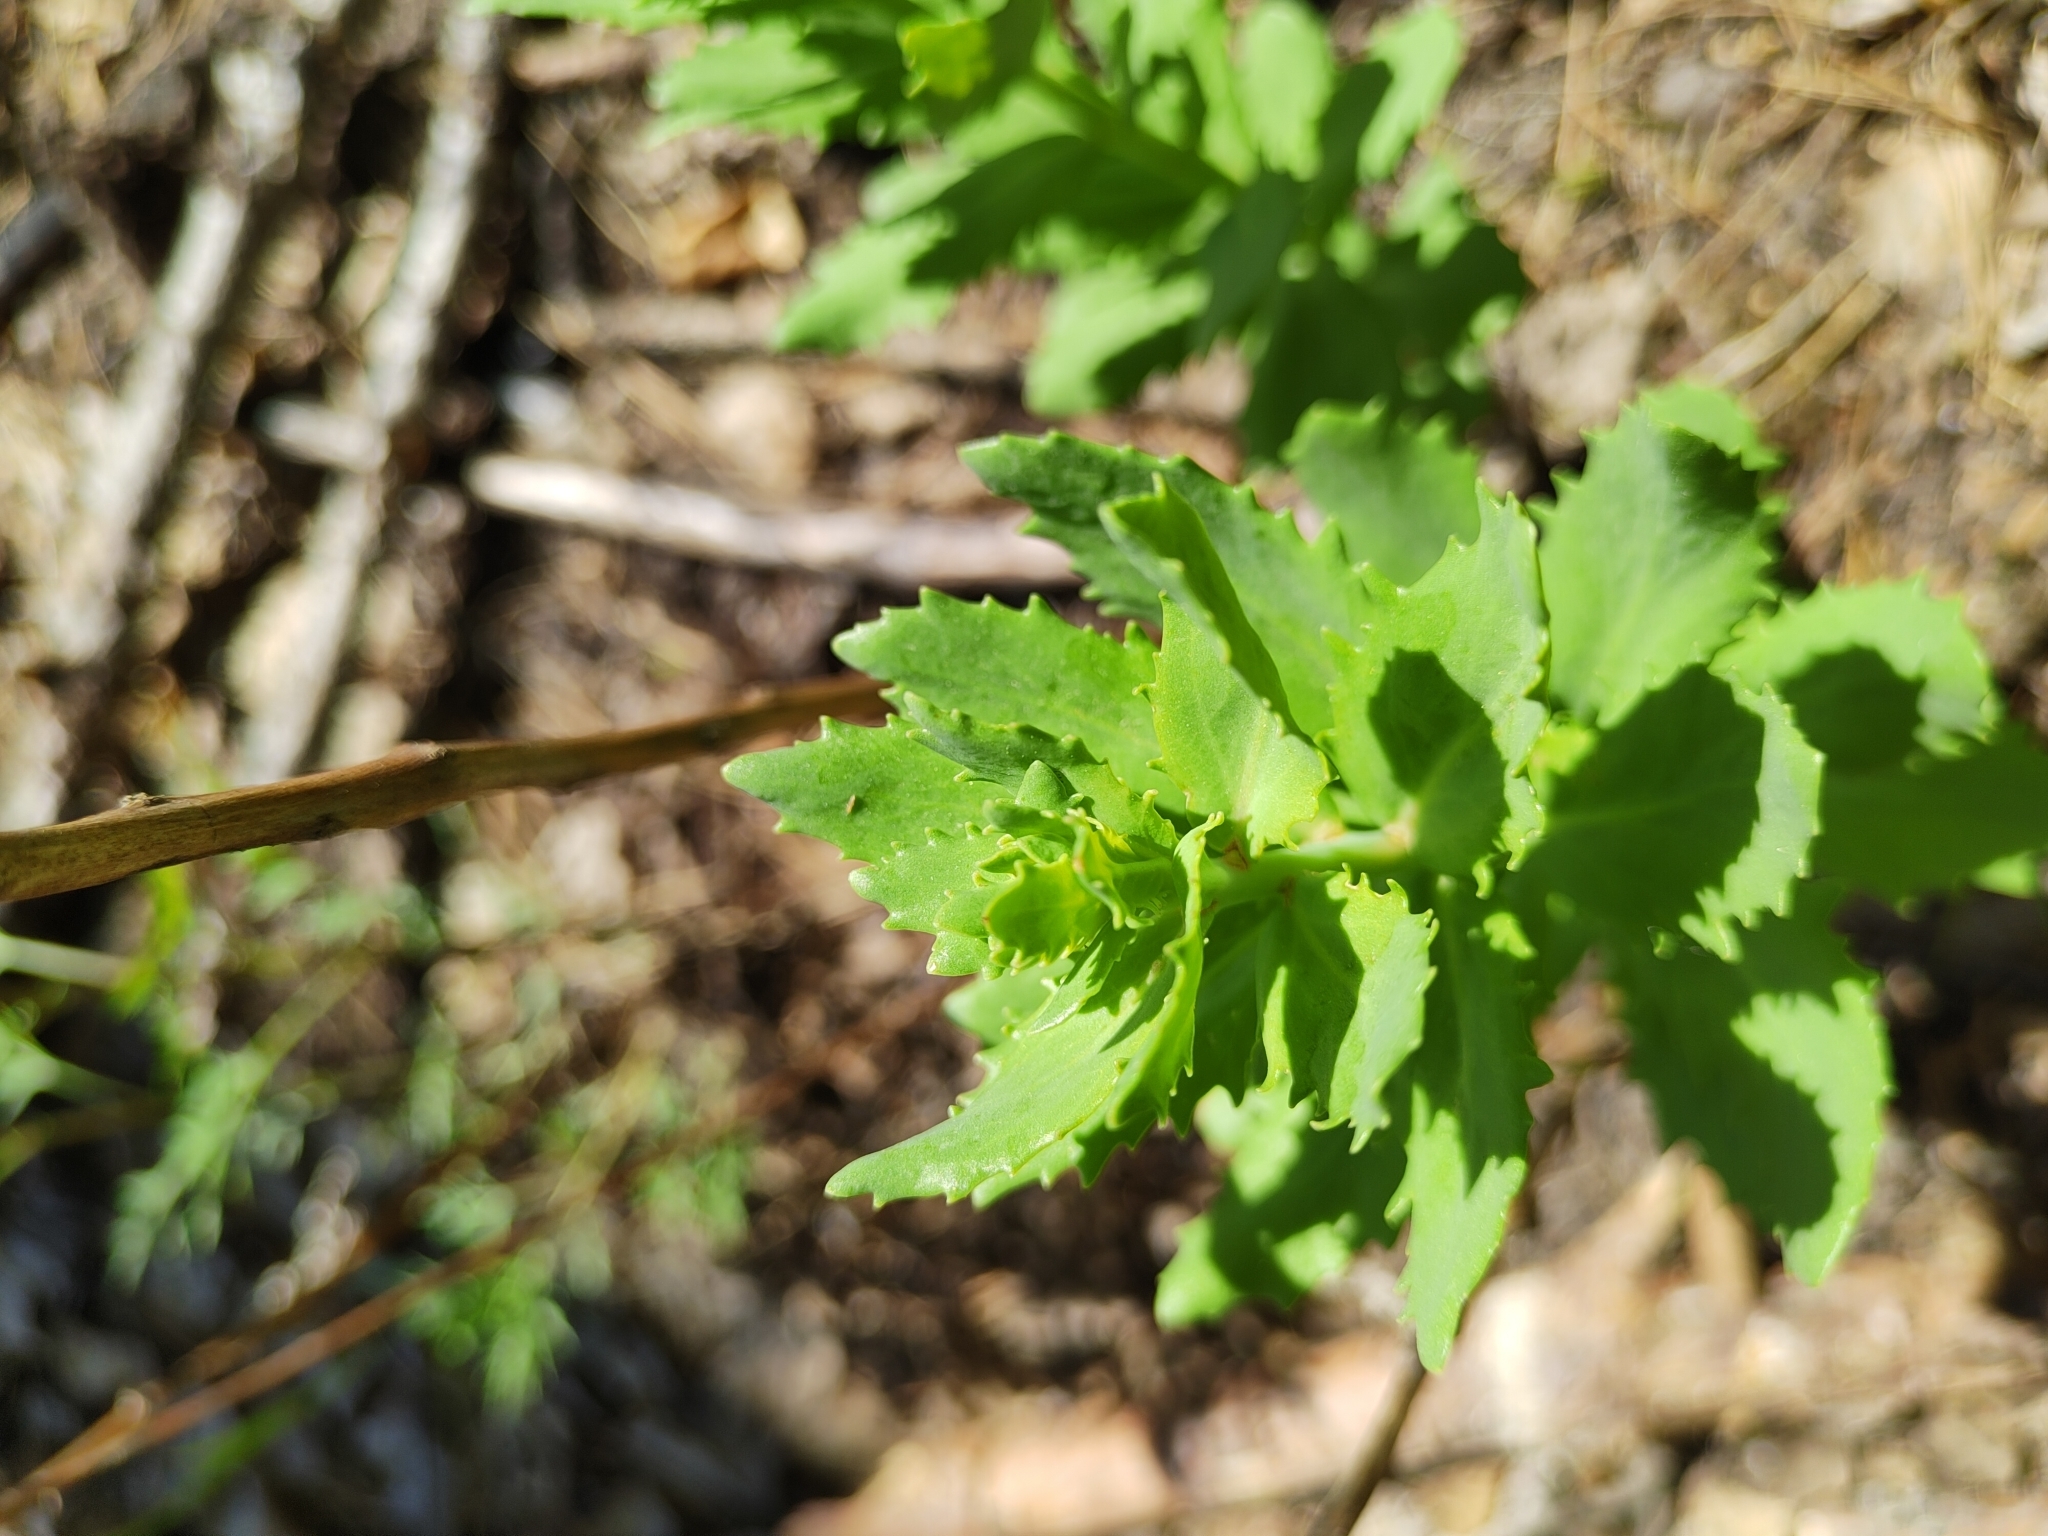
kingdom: Plantae
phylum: Tracheophyta
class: Magnoliopsida
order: Saxifragales
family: Crassulaceae
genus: Hylotelephium
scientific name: Hylotelephium telephium
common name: Live-forever
